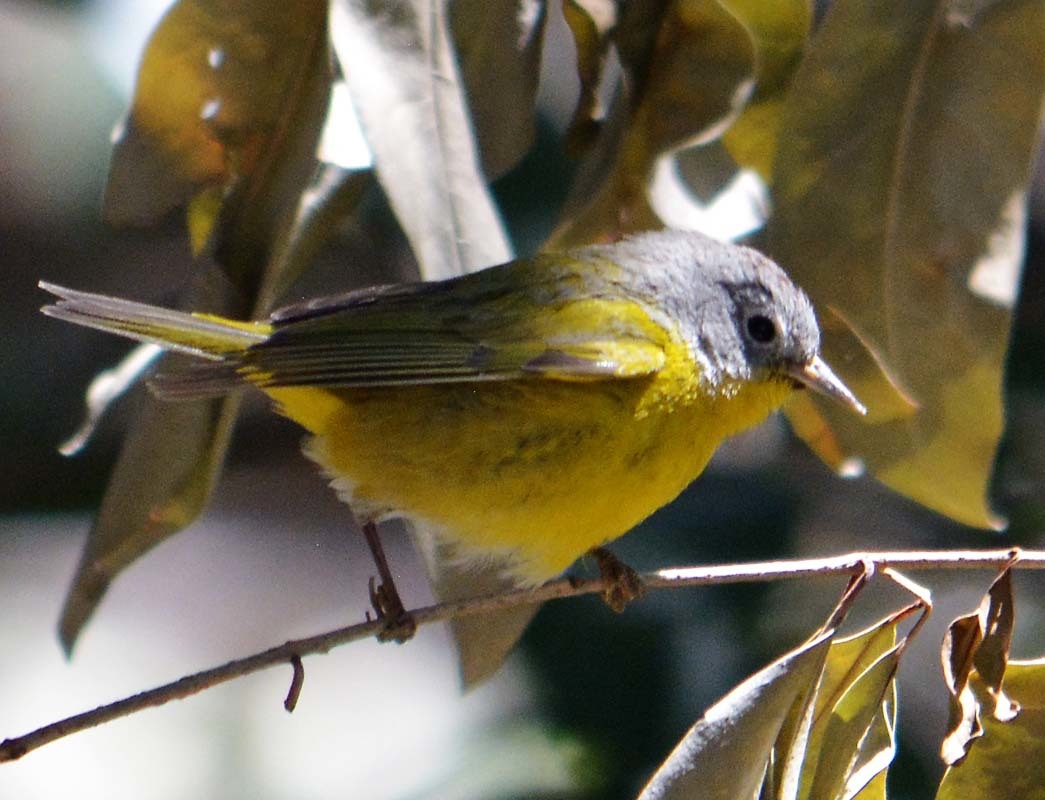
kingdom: Animalia
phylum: Chordata
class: Aves
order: Passeriformes
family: Parulidae
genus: Leiothlypis
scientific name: Leiothlypis ruficapilla
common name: Nashville warbler
